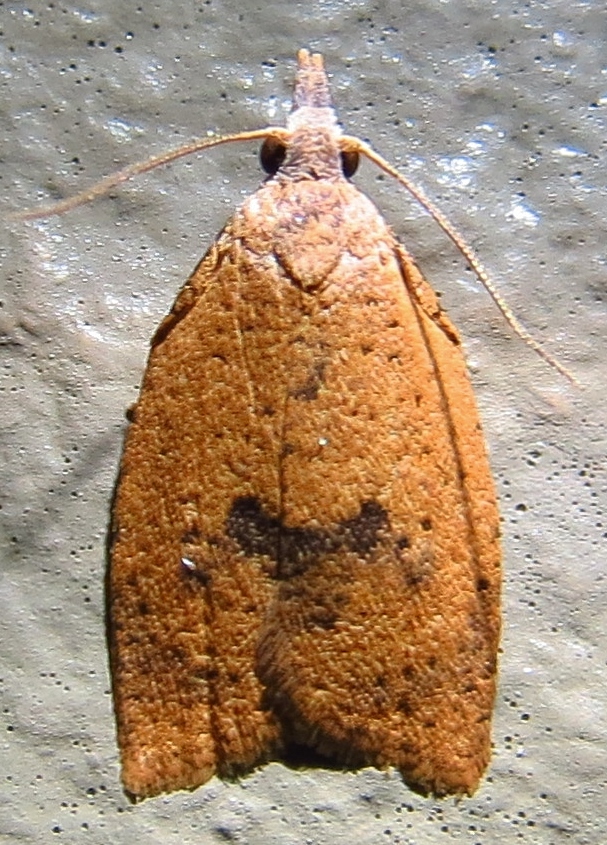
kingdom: Animalia
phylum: Arthropoda
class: Insecta
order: Lepidoptera
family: Tortricidae
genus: Sparganothoides
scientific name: Sparganothoides lentiginosana
